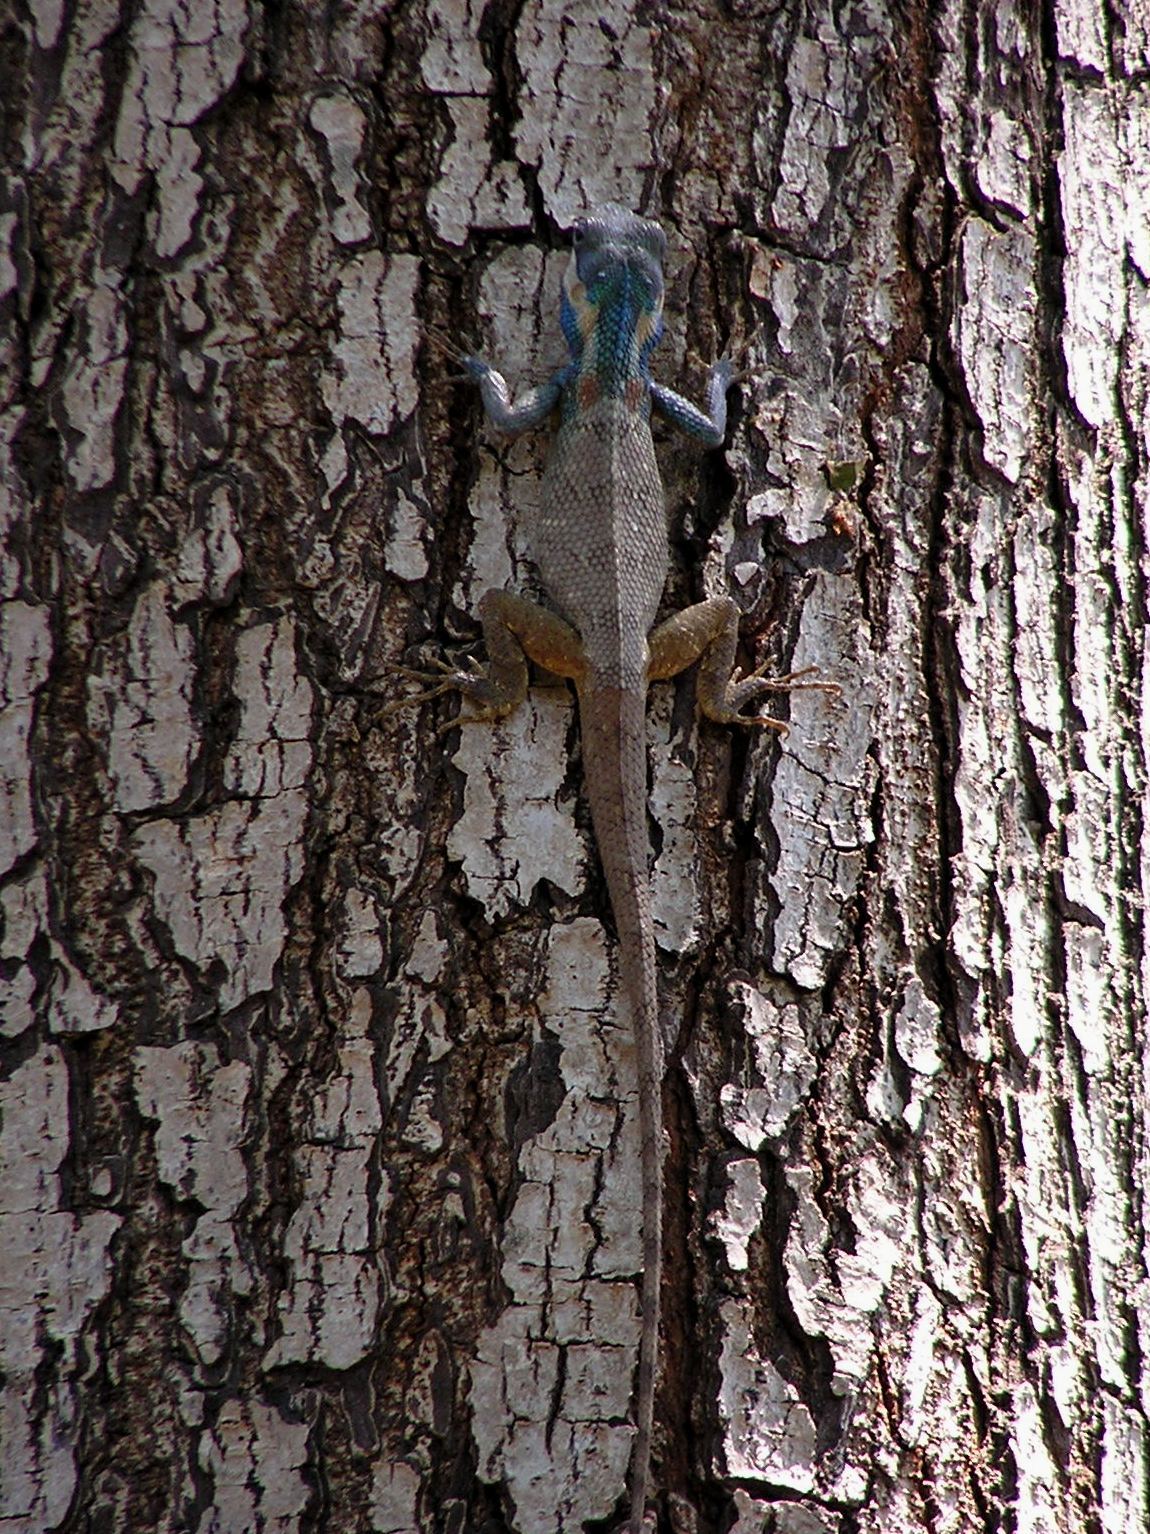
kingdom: Animalia
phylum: Chordata
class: Squamata
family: Agamidae
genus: Calotes
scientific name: Calotes goetzi
